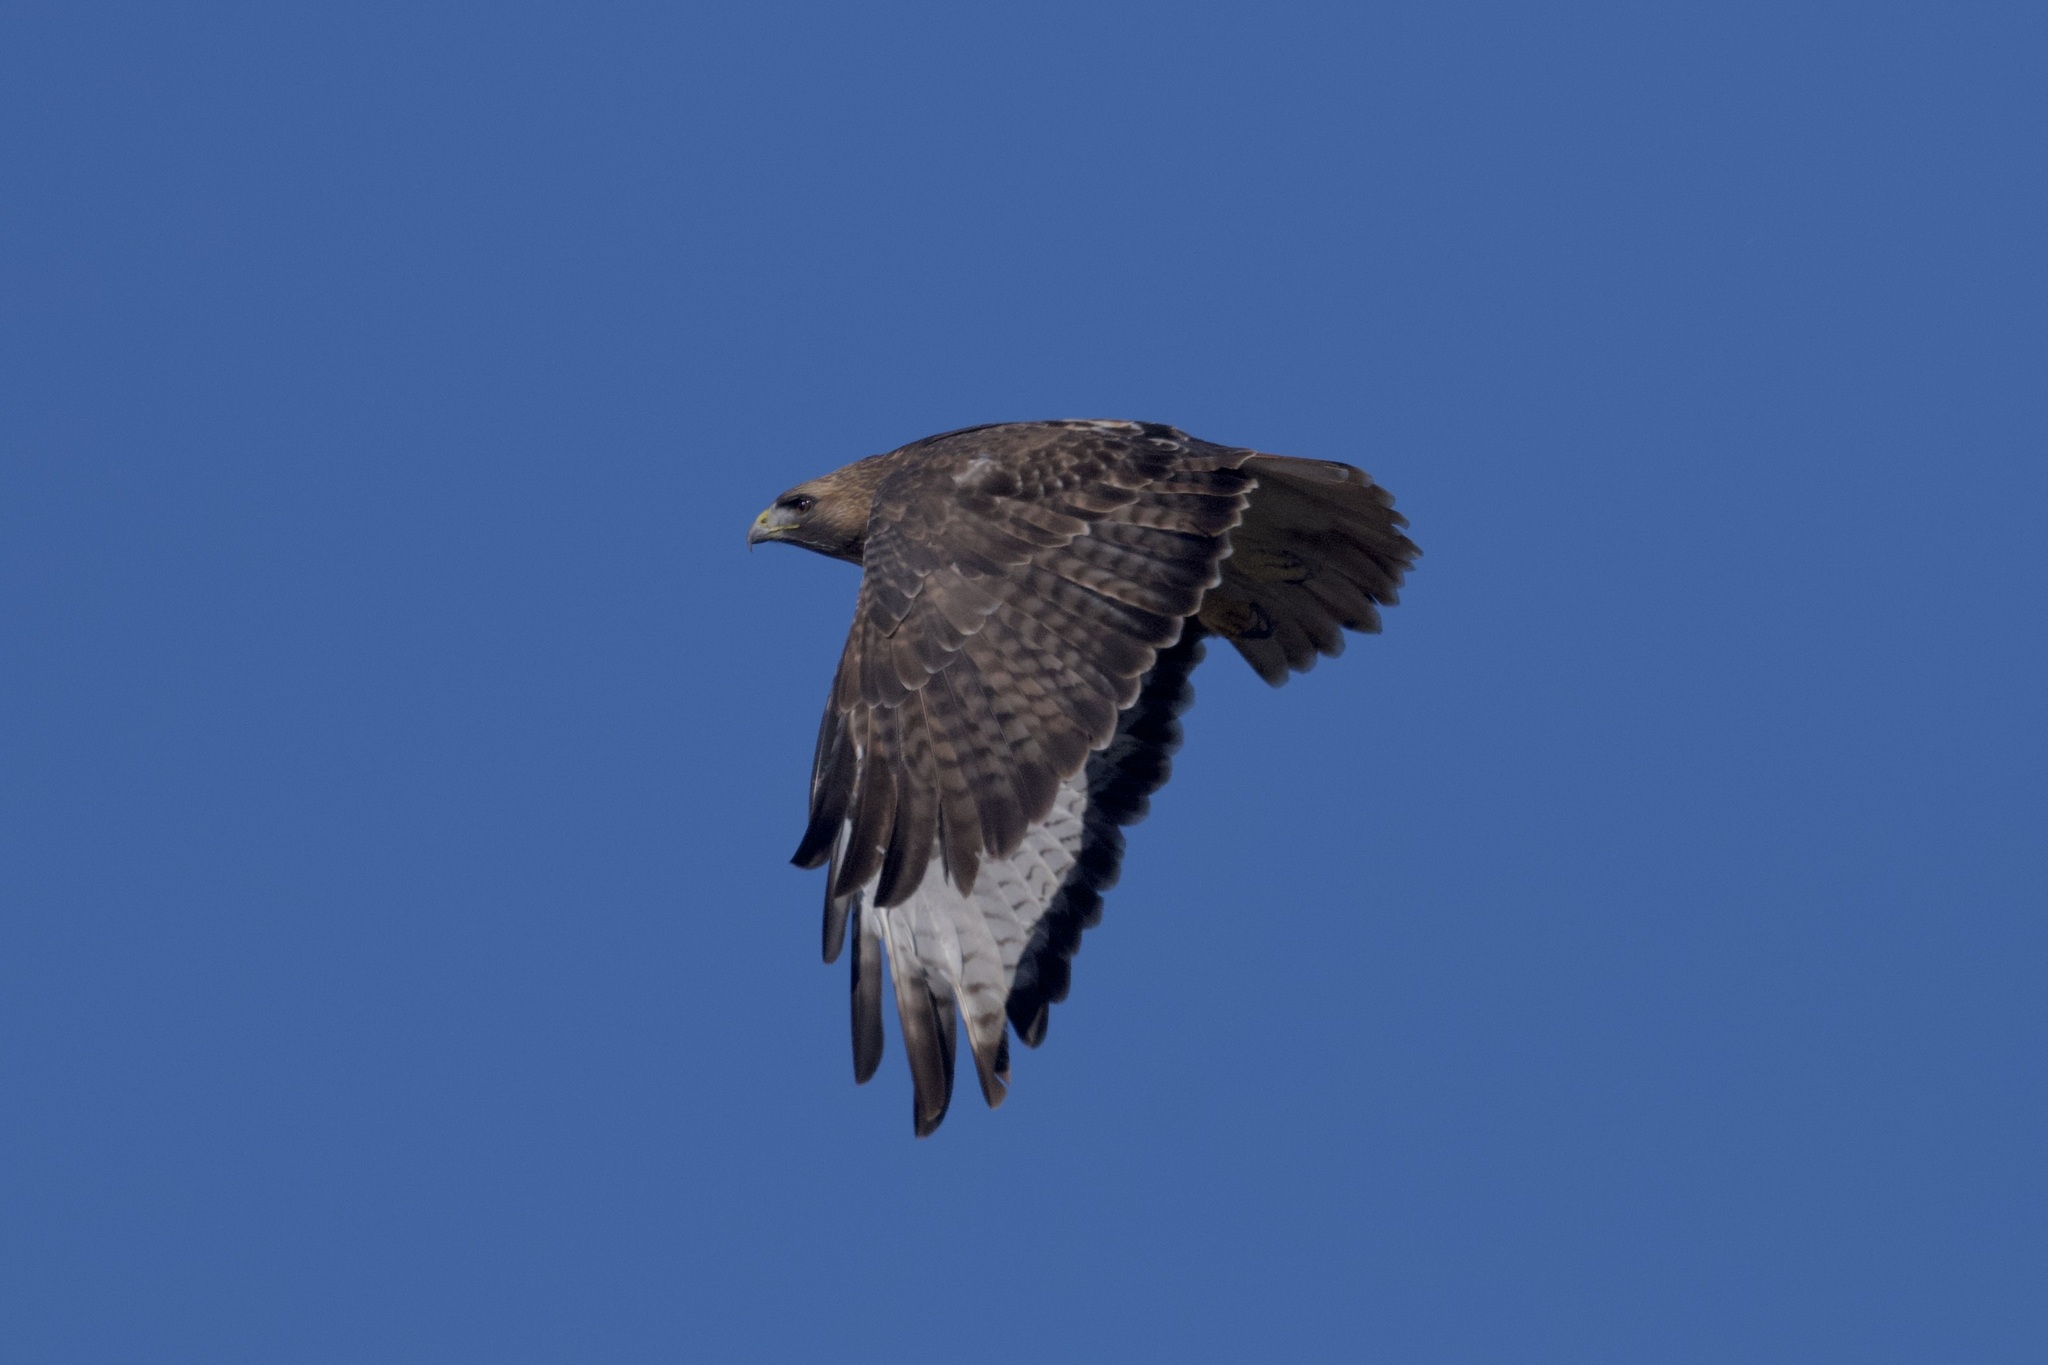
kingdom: Animalia
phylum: Chordata
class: Aves
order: Accipitriformes
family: Accipitridae
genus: Buteo
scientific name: Buteo jamaicensis
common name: Red-tailed hawk
